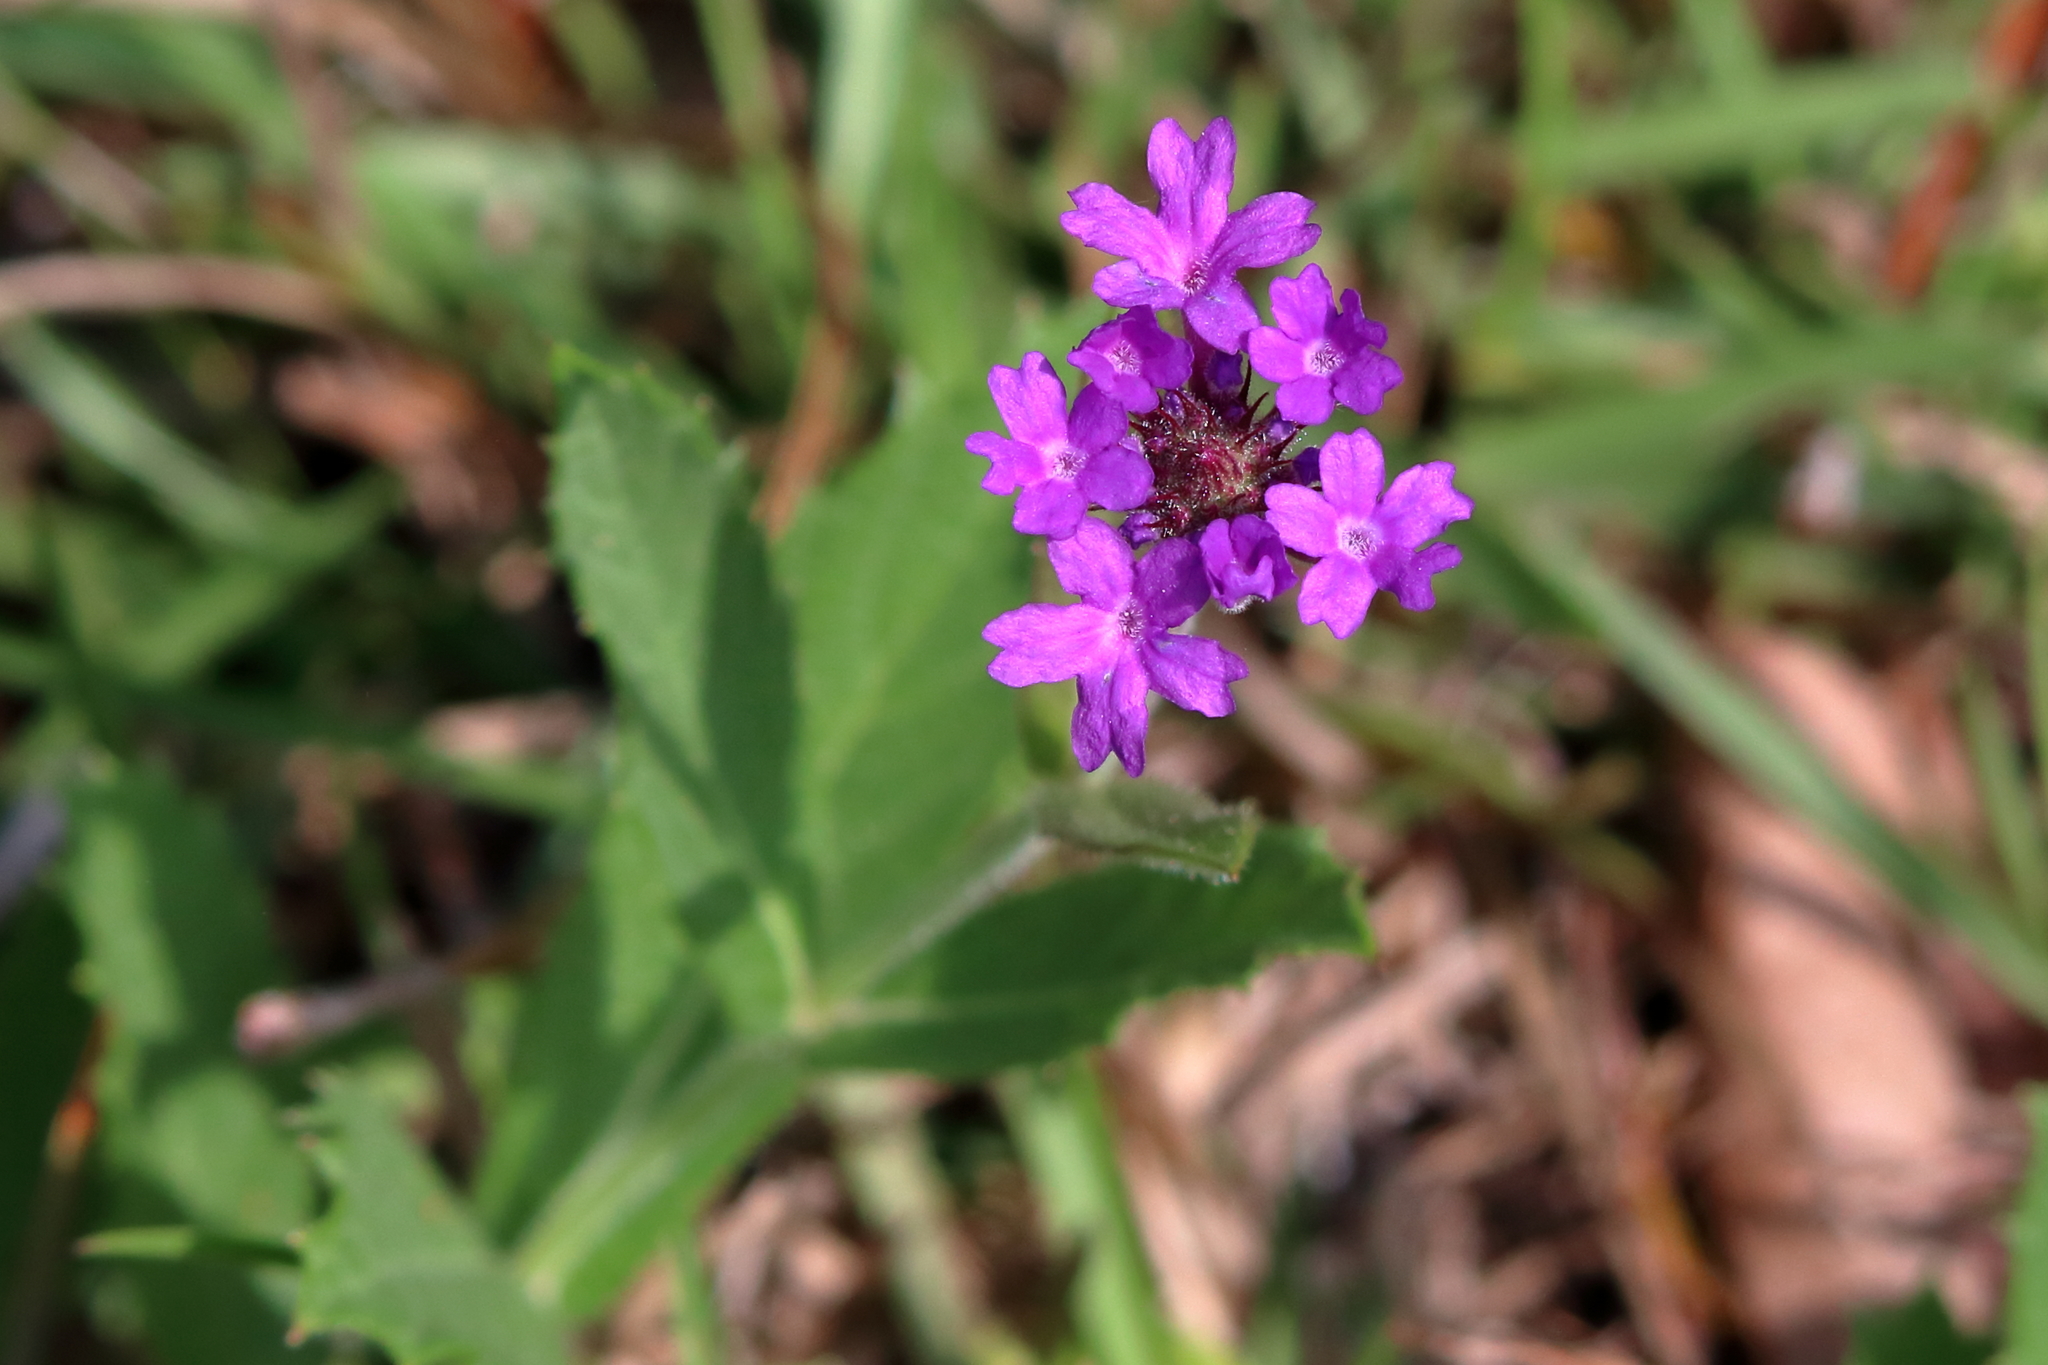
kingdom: Plantae
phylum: Tracheophyta
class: Magnoliopsida
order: Lamiales
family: Verbenaceae
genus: Verbena
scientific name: Verbena rigida
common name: Slender vervain
